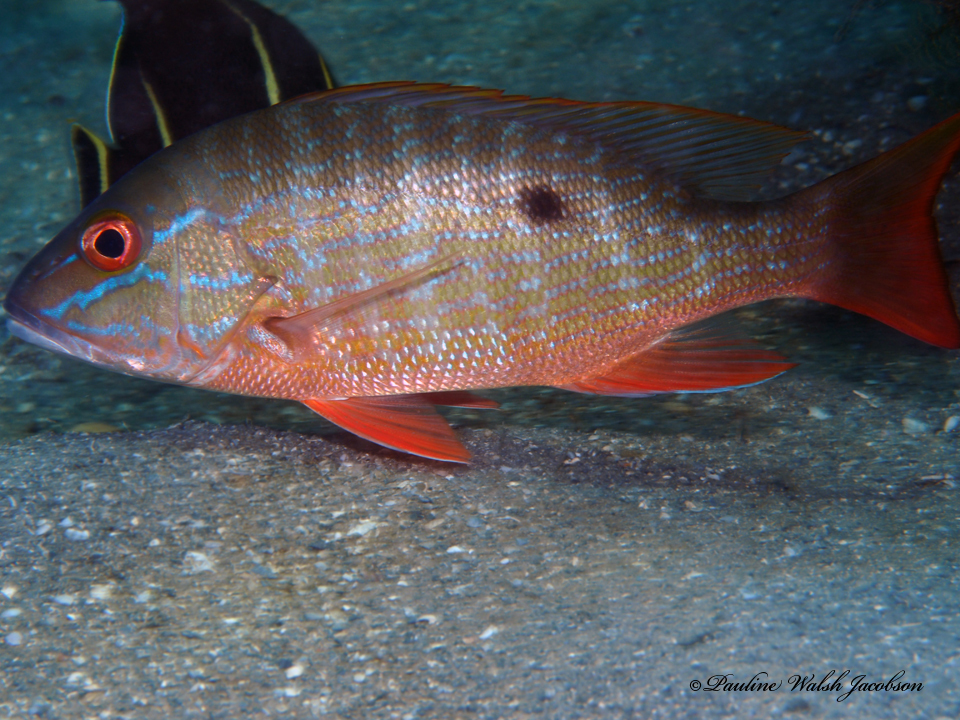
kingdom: Animalia
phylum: Chordata
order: Perciformes
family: Lutjanidae
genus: Lutjanus
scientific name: Lutjanus analis
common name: Mutton snapper
